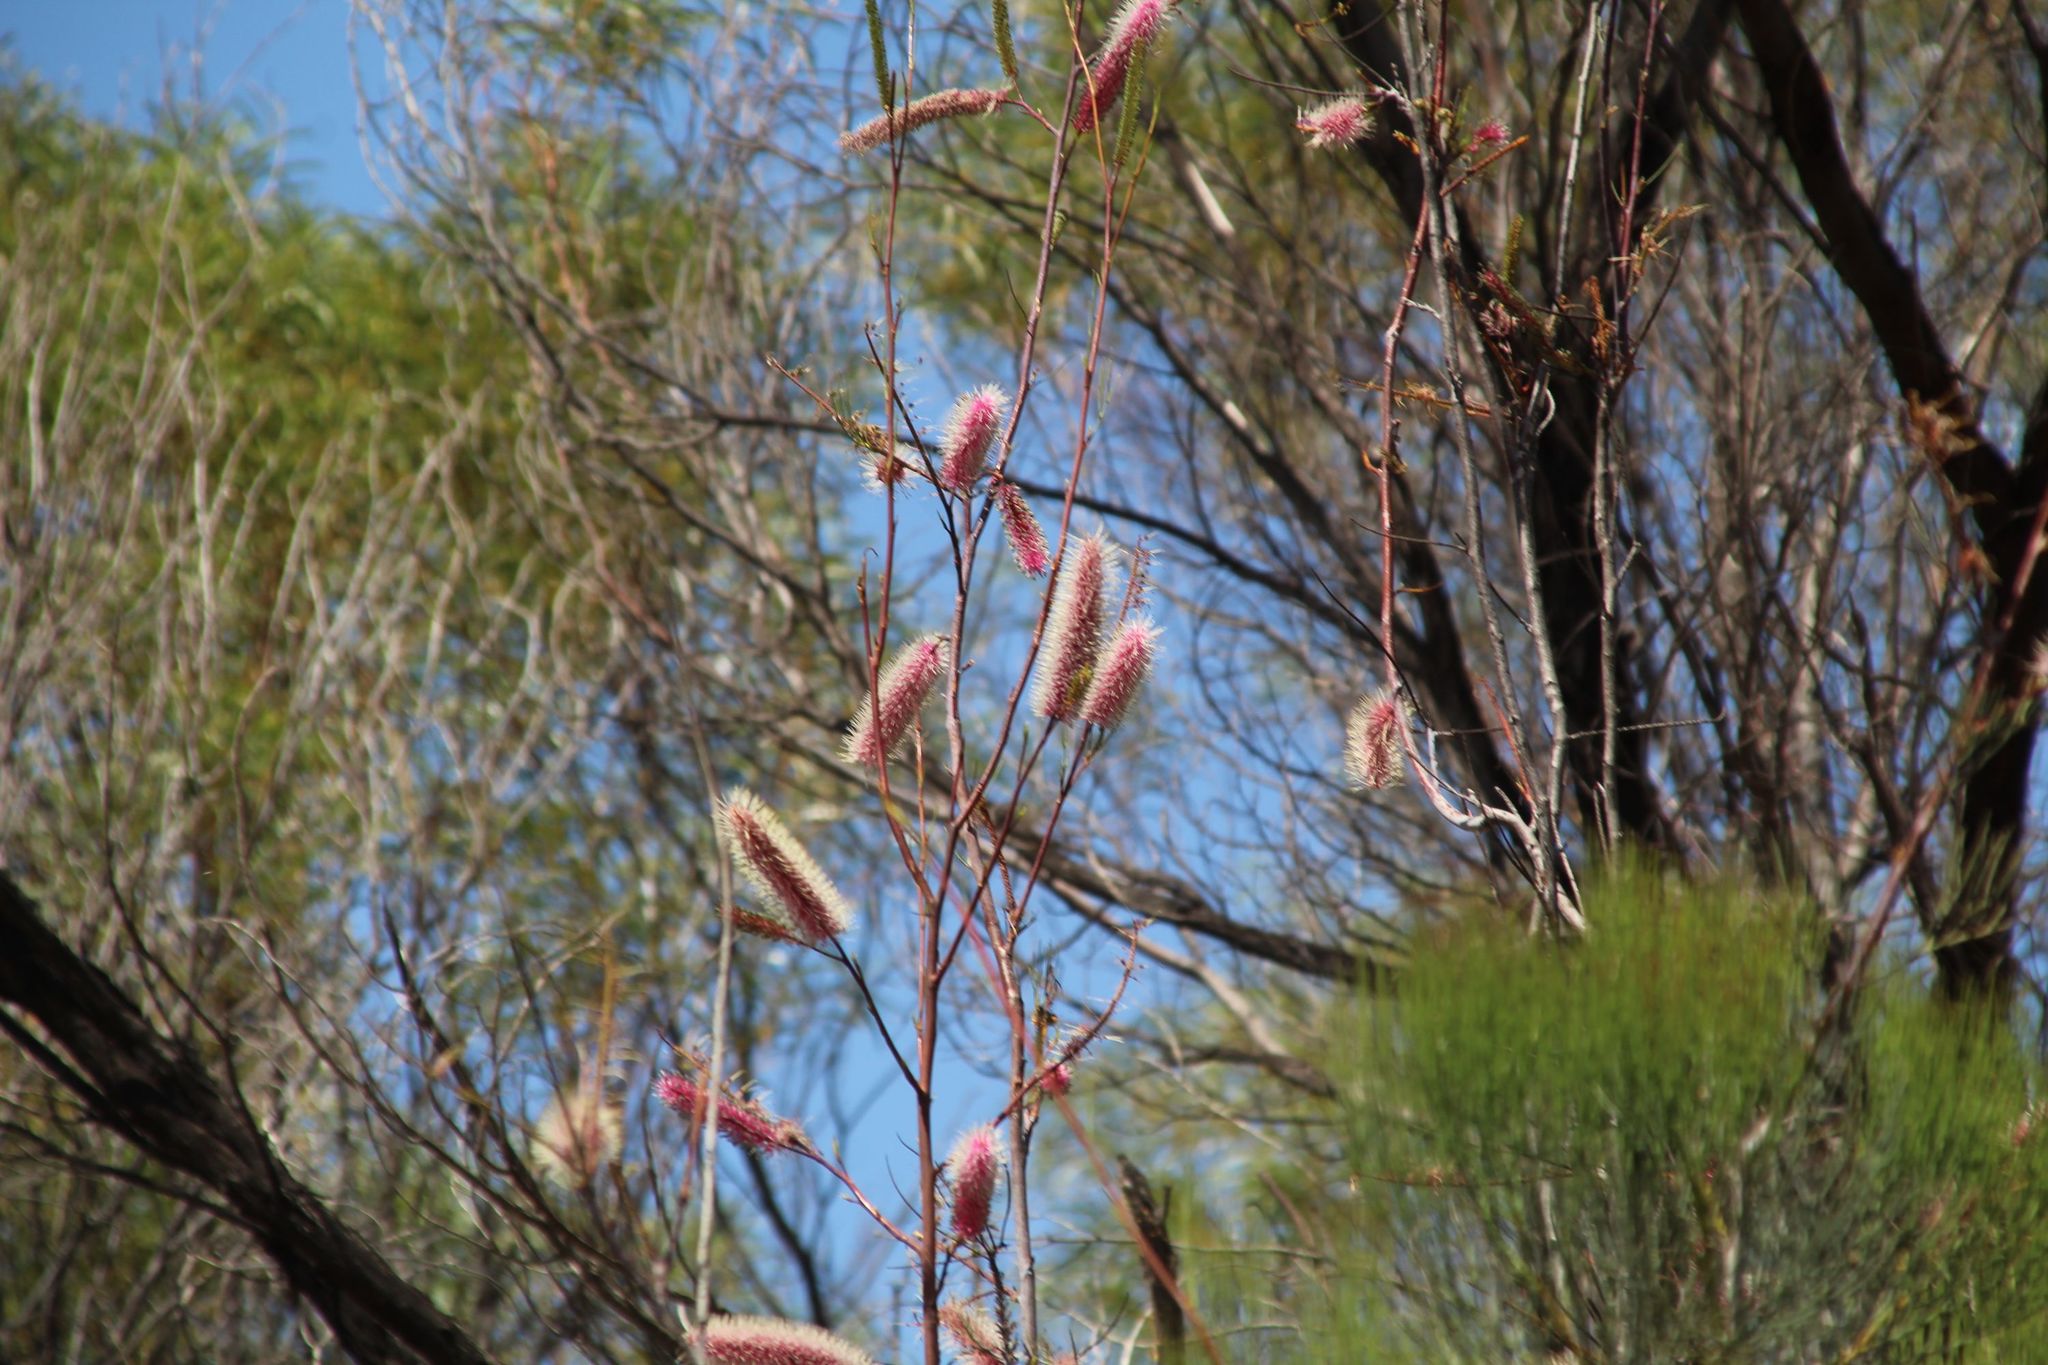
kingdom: Plantae
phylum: Tracheophyta
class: Magnoliopsida
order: Proteales
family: Proteaceae
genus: Grevillea
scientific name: Grevillea petrophiloides
